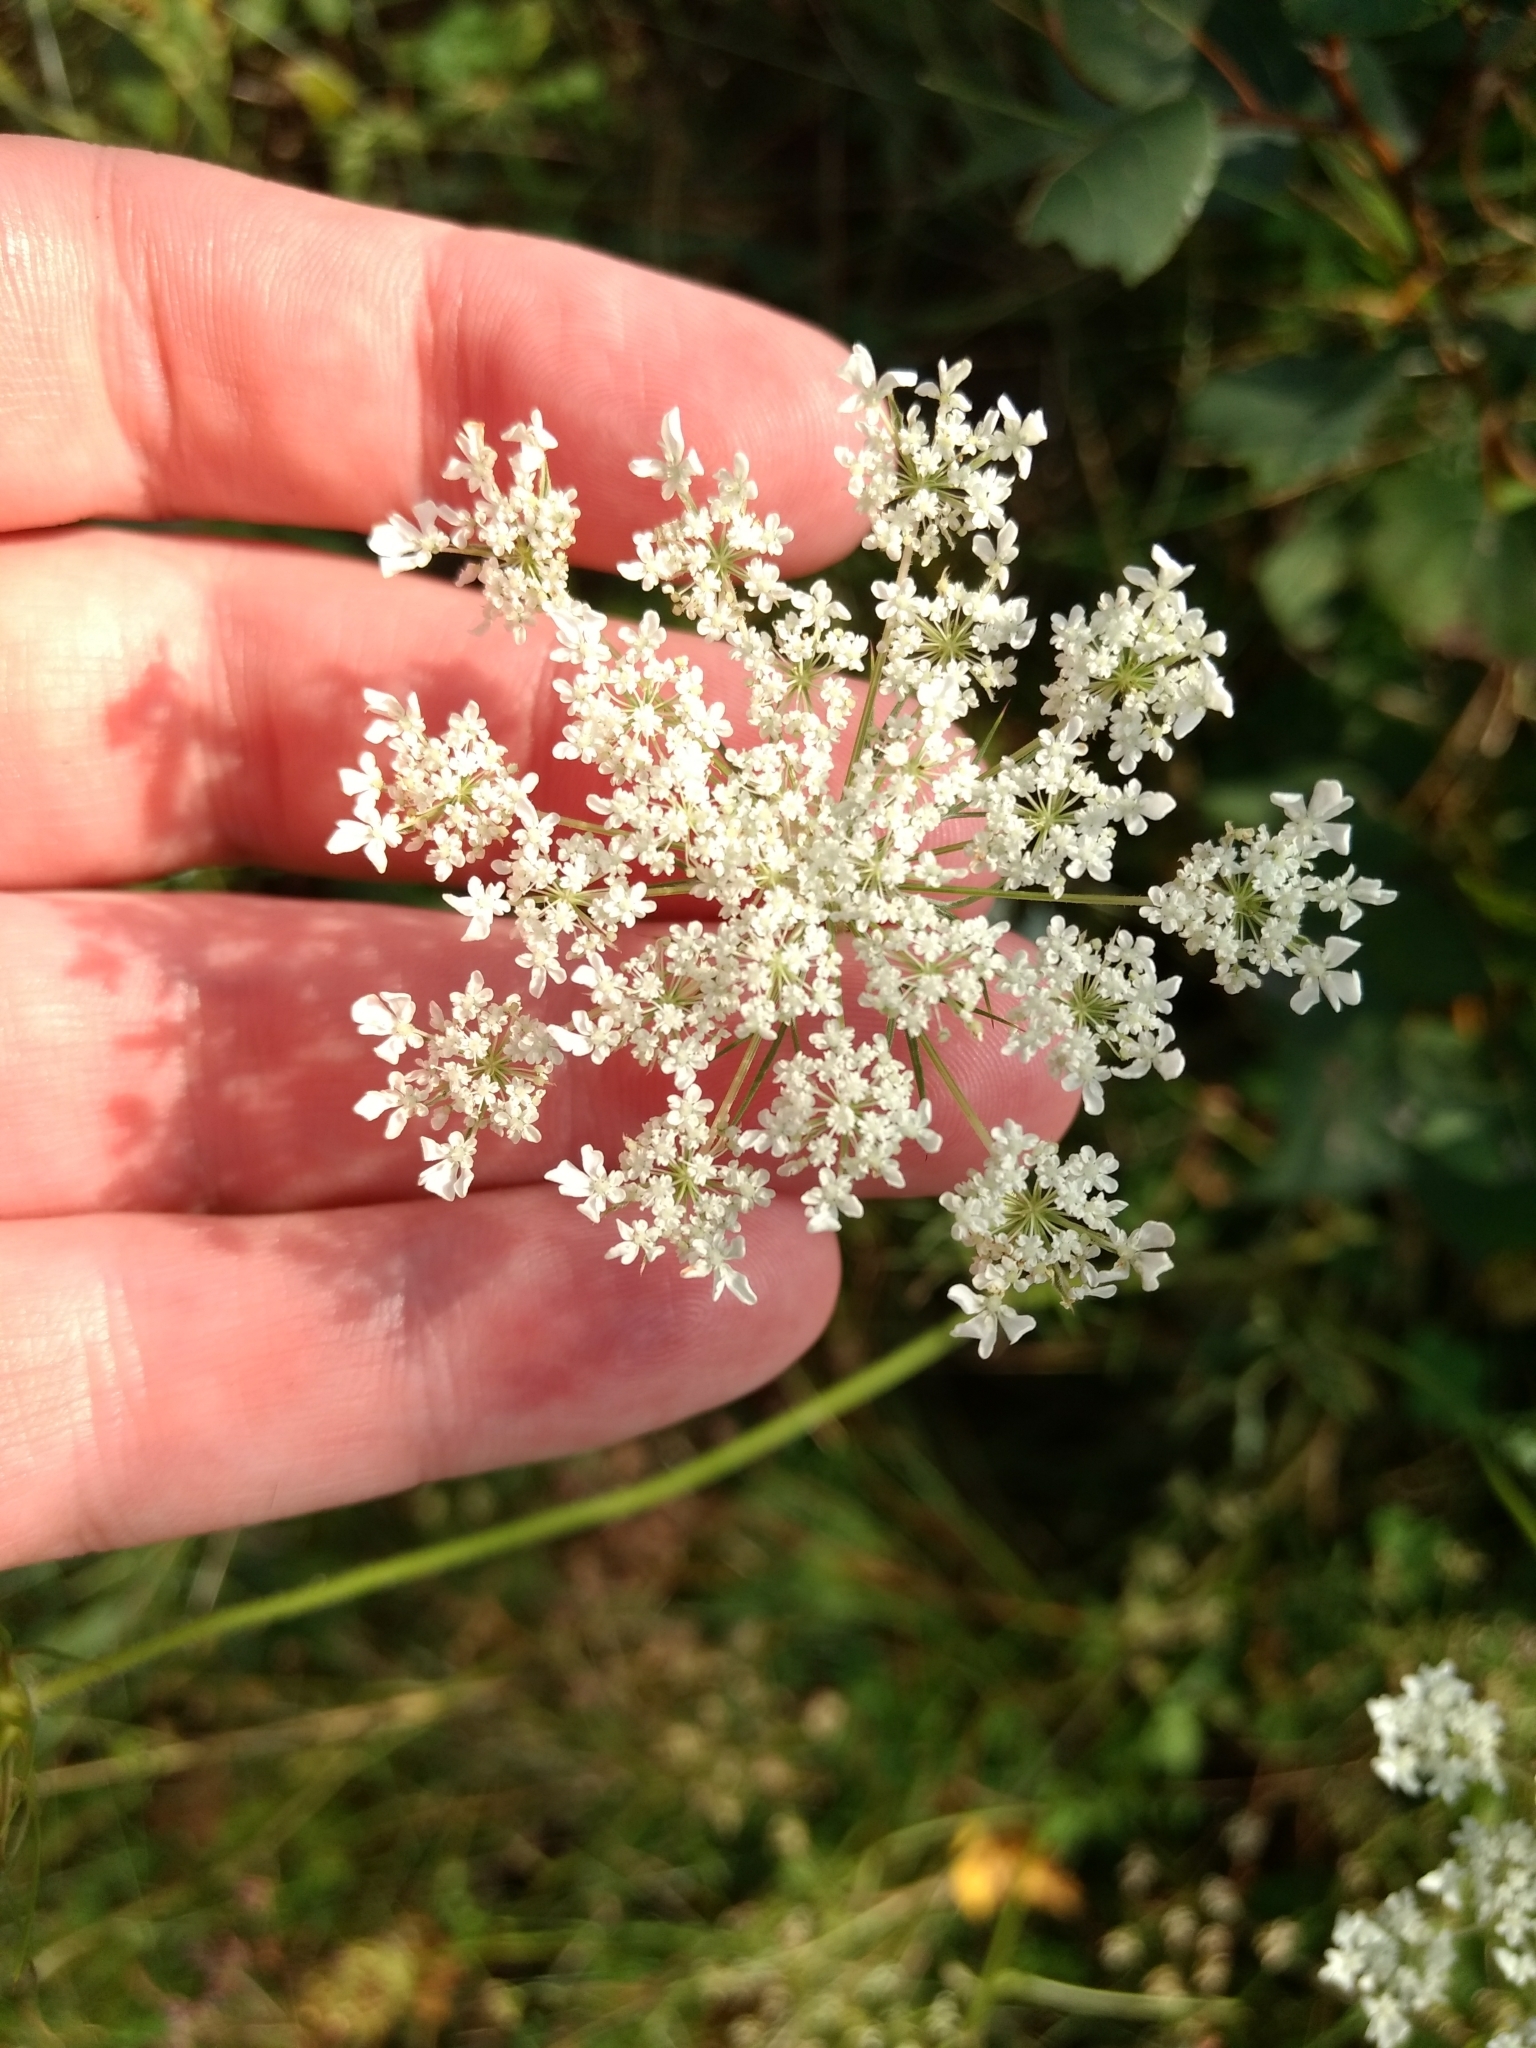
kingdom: Plantae
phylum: Tracheophyta
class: Magnoliopsida
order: Apiales
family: Apiaceae
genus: Daucus
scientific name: Daucus carota
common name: Wild carrot
